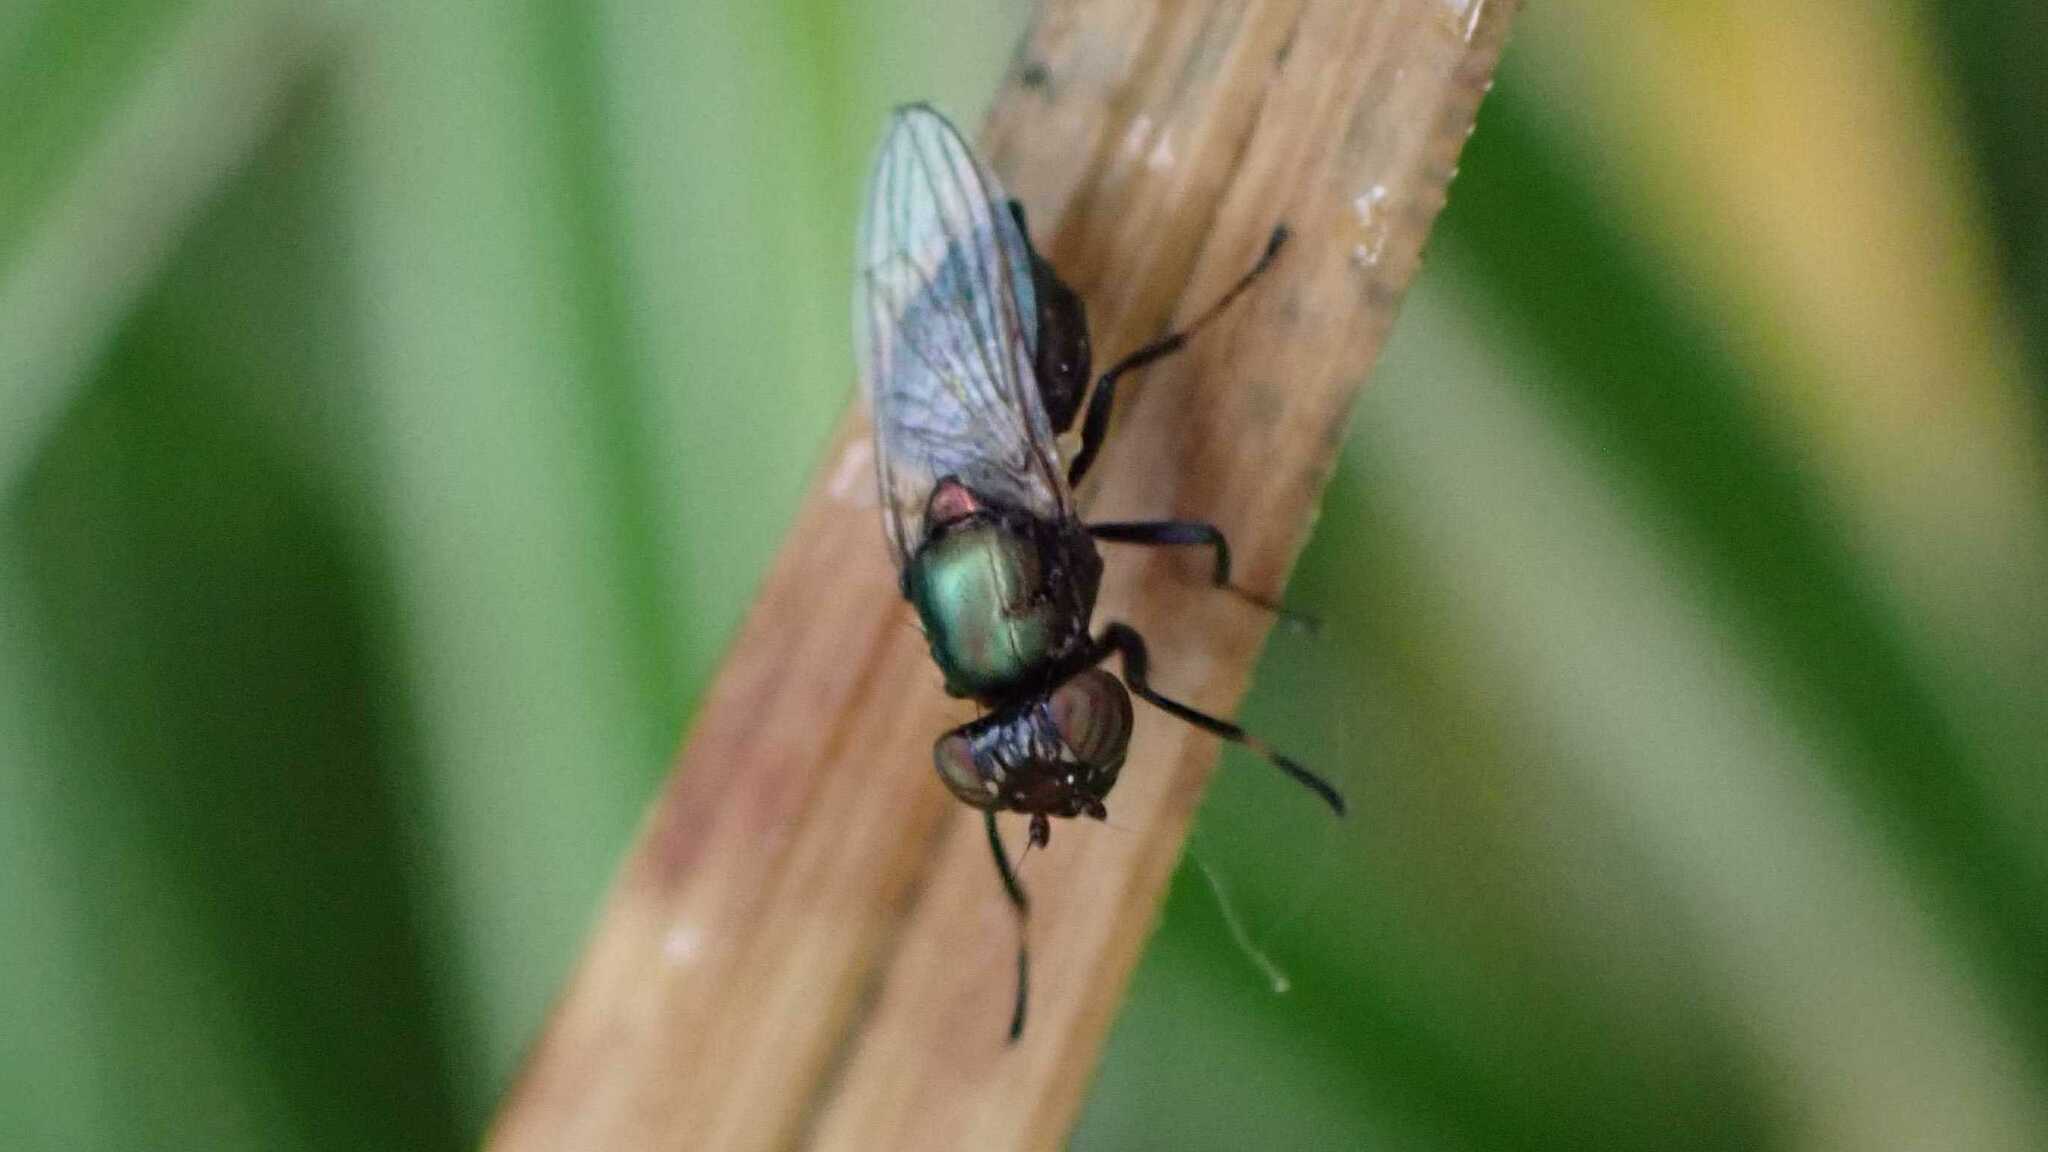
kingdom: Animalia
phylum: Arthropoda
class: Insecta
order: Diptera
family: Ulidiidae
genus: Physiphora
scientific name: Physiphora alceae
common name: Picture-winged fly
